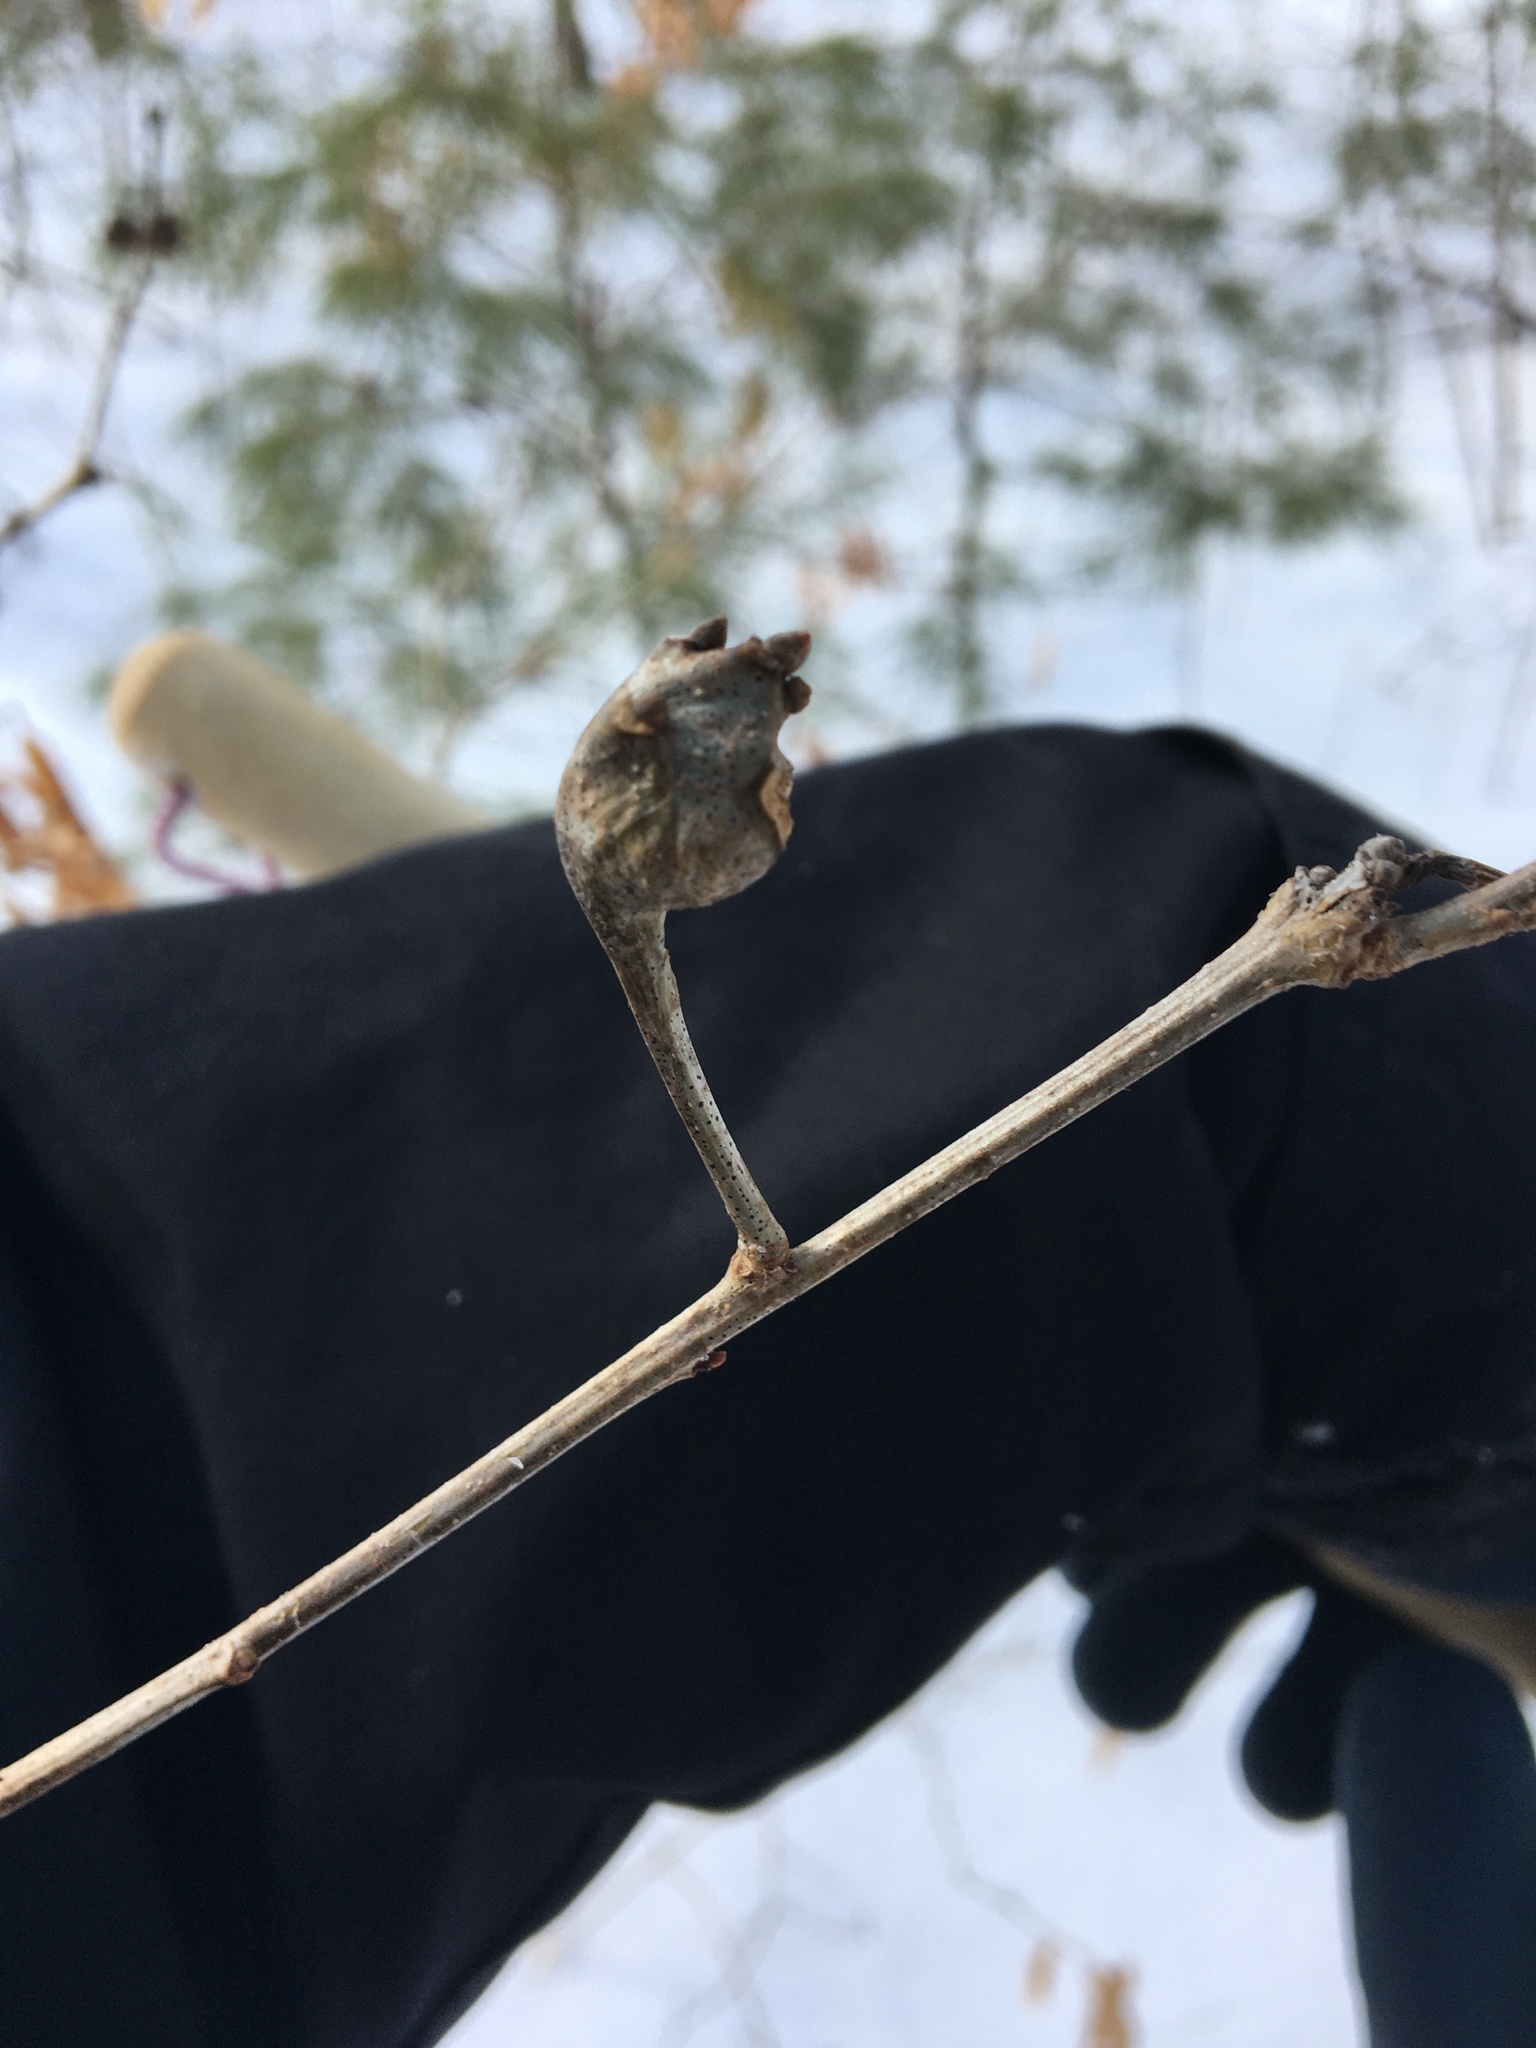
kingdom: Animalia
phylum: Arthropoda
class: Insecta
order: Hymenoptera
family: Cynipidae
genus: Callirhytis
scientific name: Callirhytis clavula
